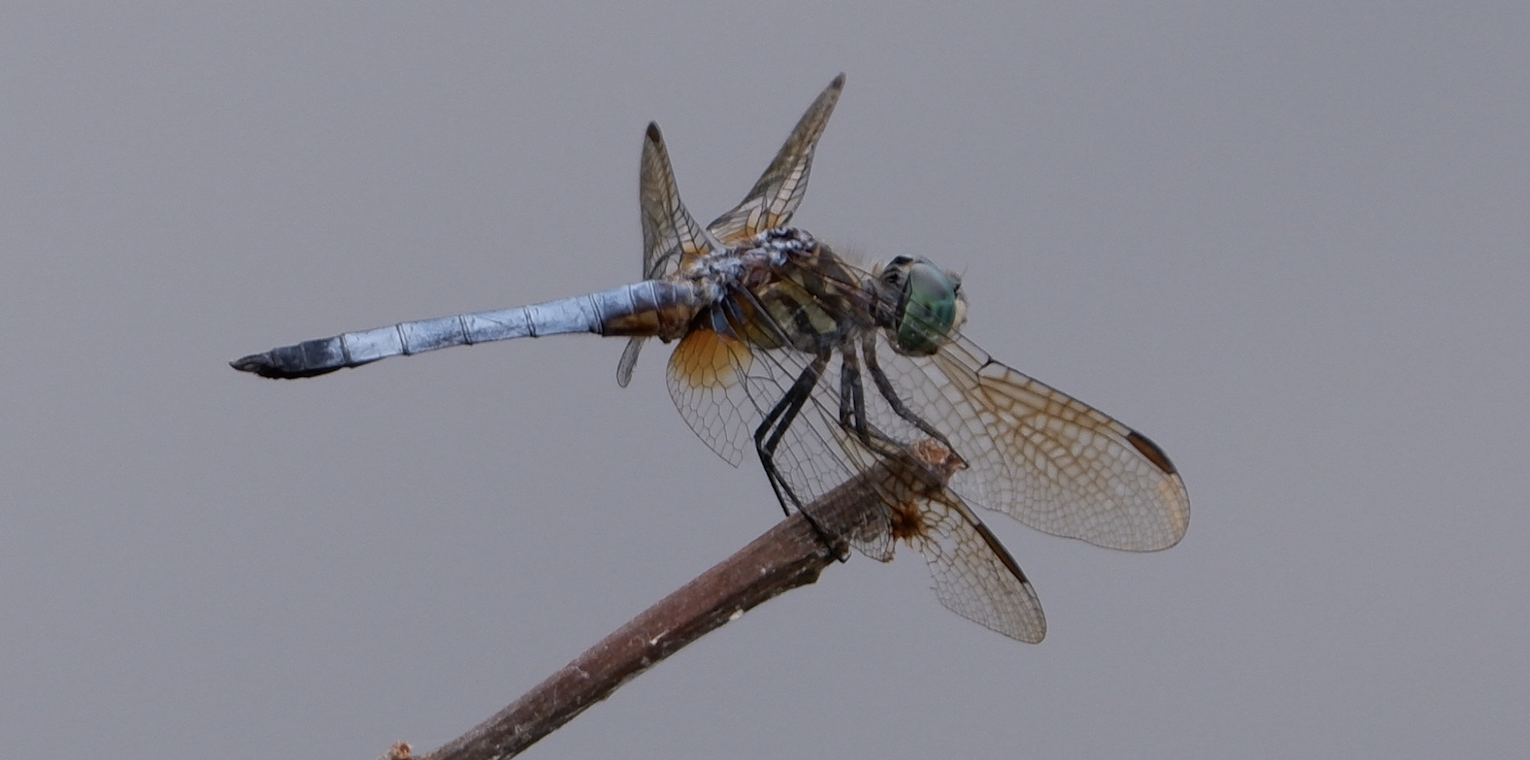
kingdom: Animalia
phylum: Arthropoda
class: Insecta
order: Odonata
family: Libellulidae
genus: Pachydiplax
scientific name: Pachydiplax longipennis
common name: Blue dasher
